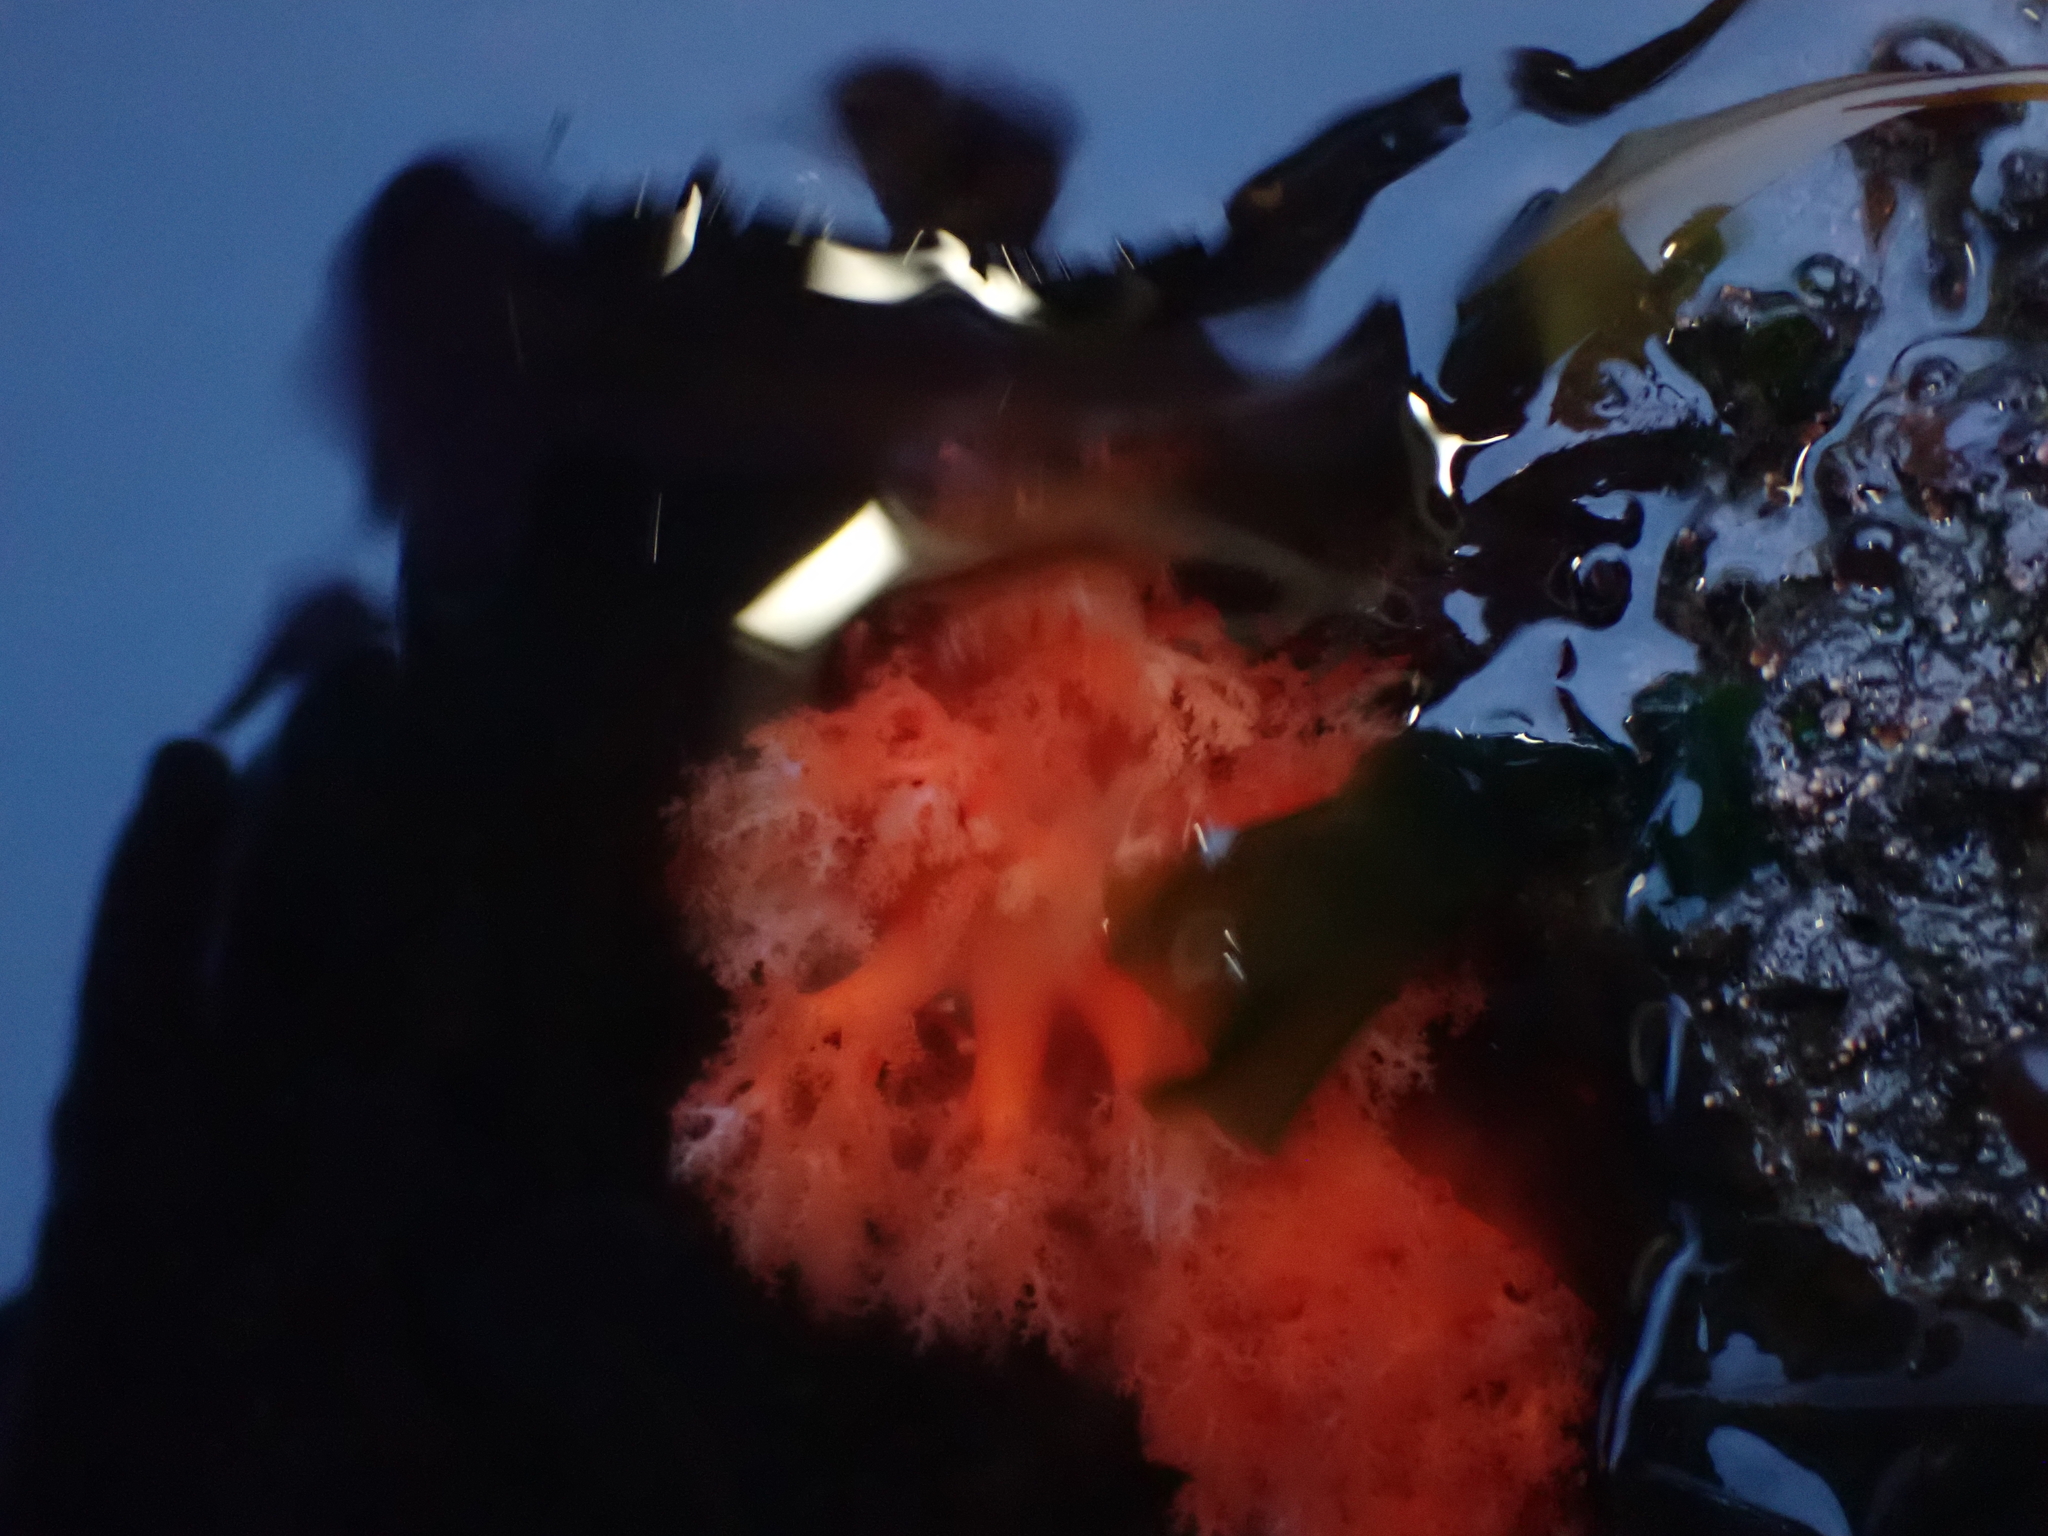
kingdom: Animalia
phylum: Echinodermata
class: Holothuroidea
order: Dendrochirotida
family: Cucumariidae
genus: Cucumaria
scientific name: Cucumaria miniata
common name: Orange sea cucumber
